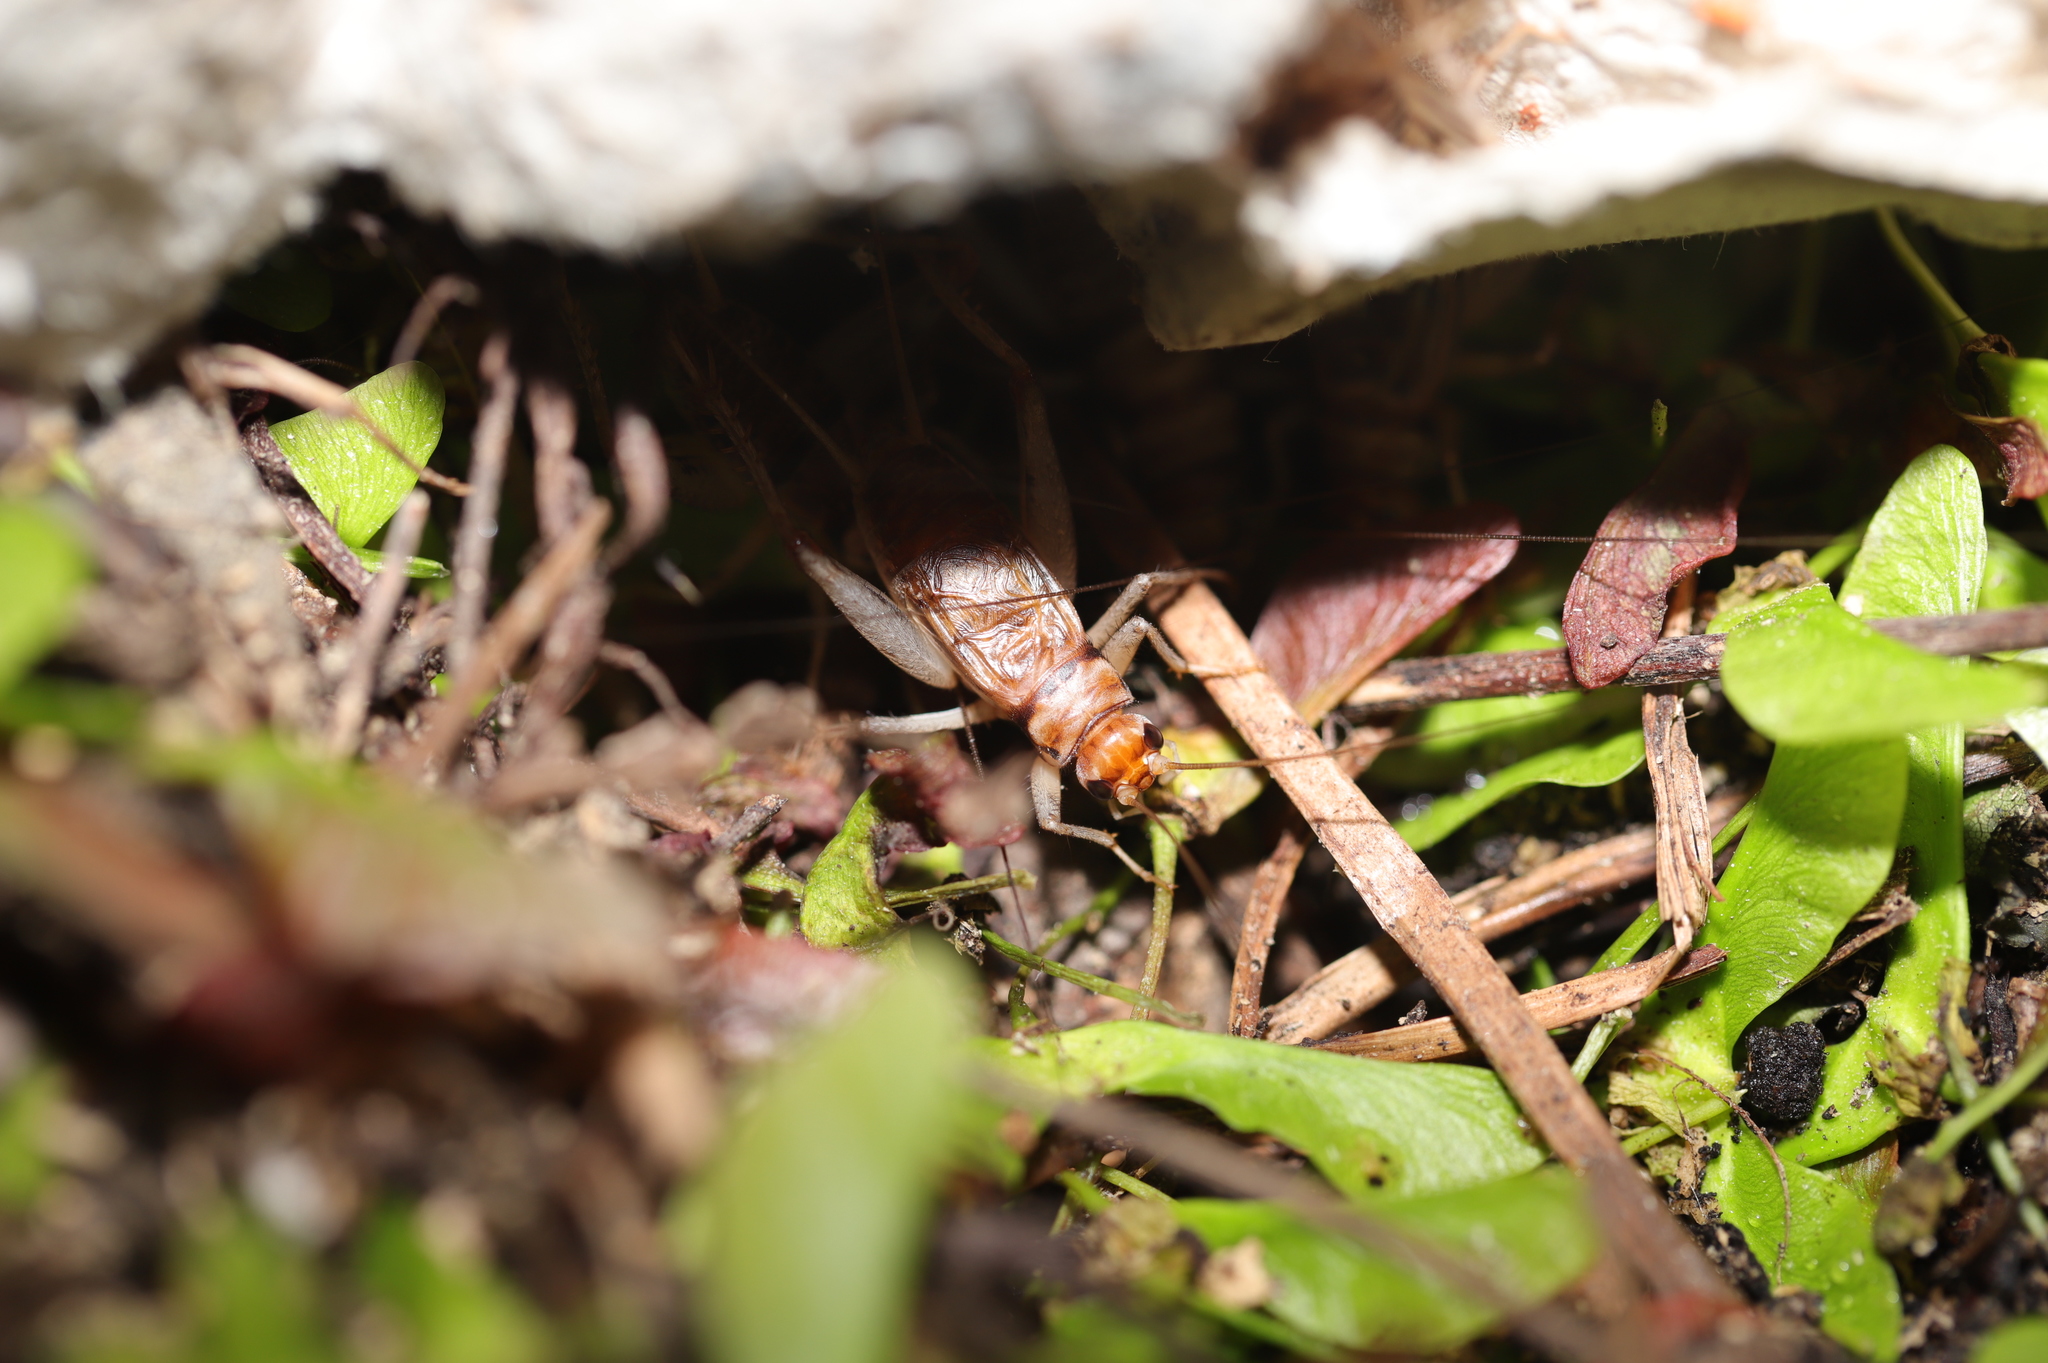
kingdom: Animalia
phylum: Arthropoda
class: Insecta
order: Orthoptera
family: Gryllidae
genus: Gryllodes
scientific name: Gryllodes sigillatus
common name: Tropical house cricket
